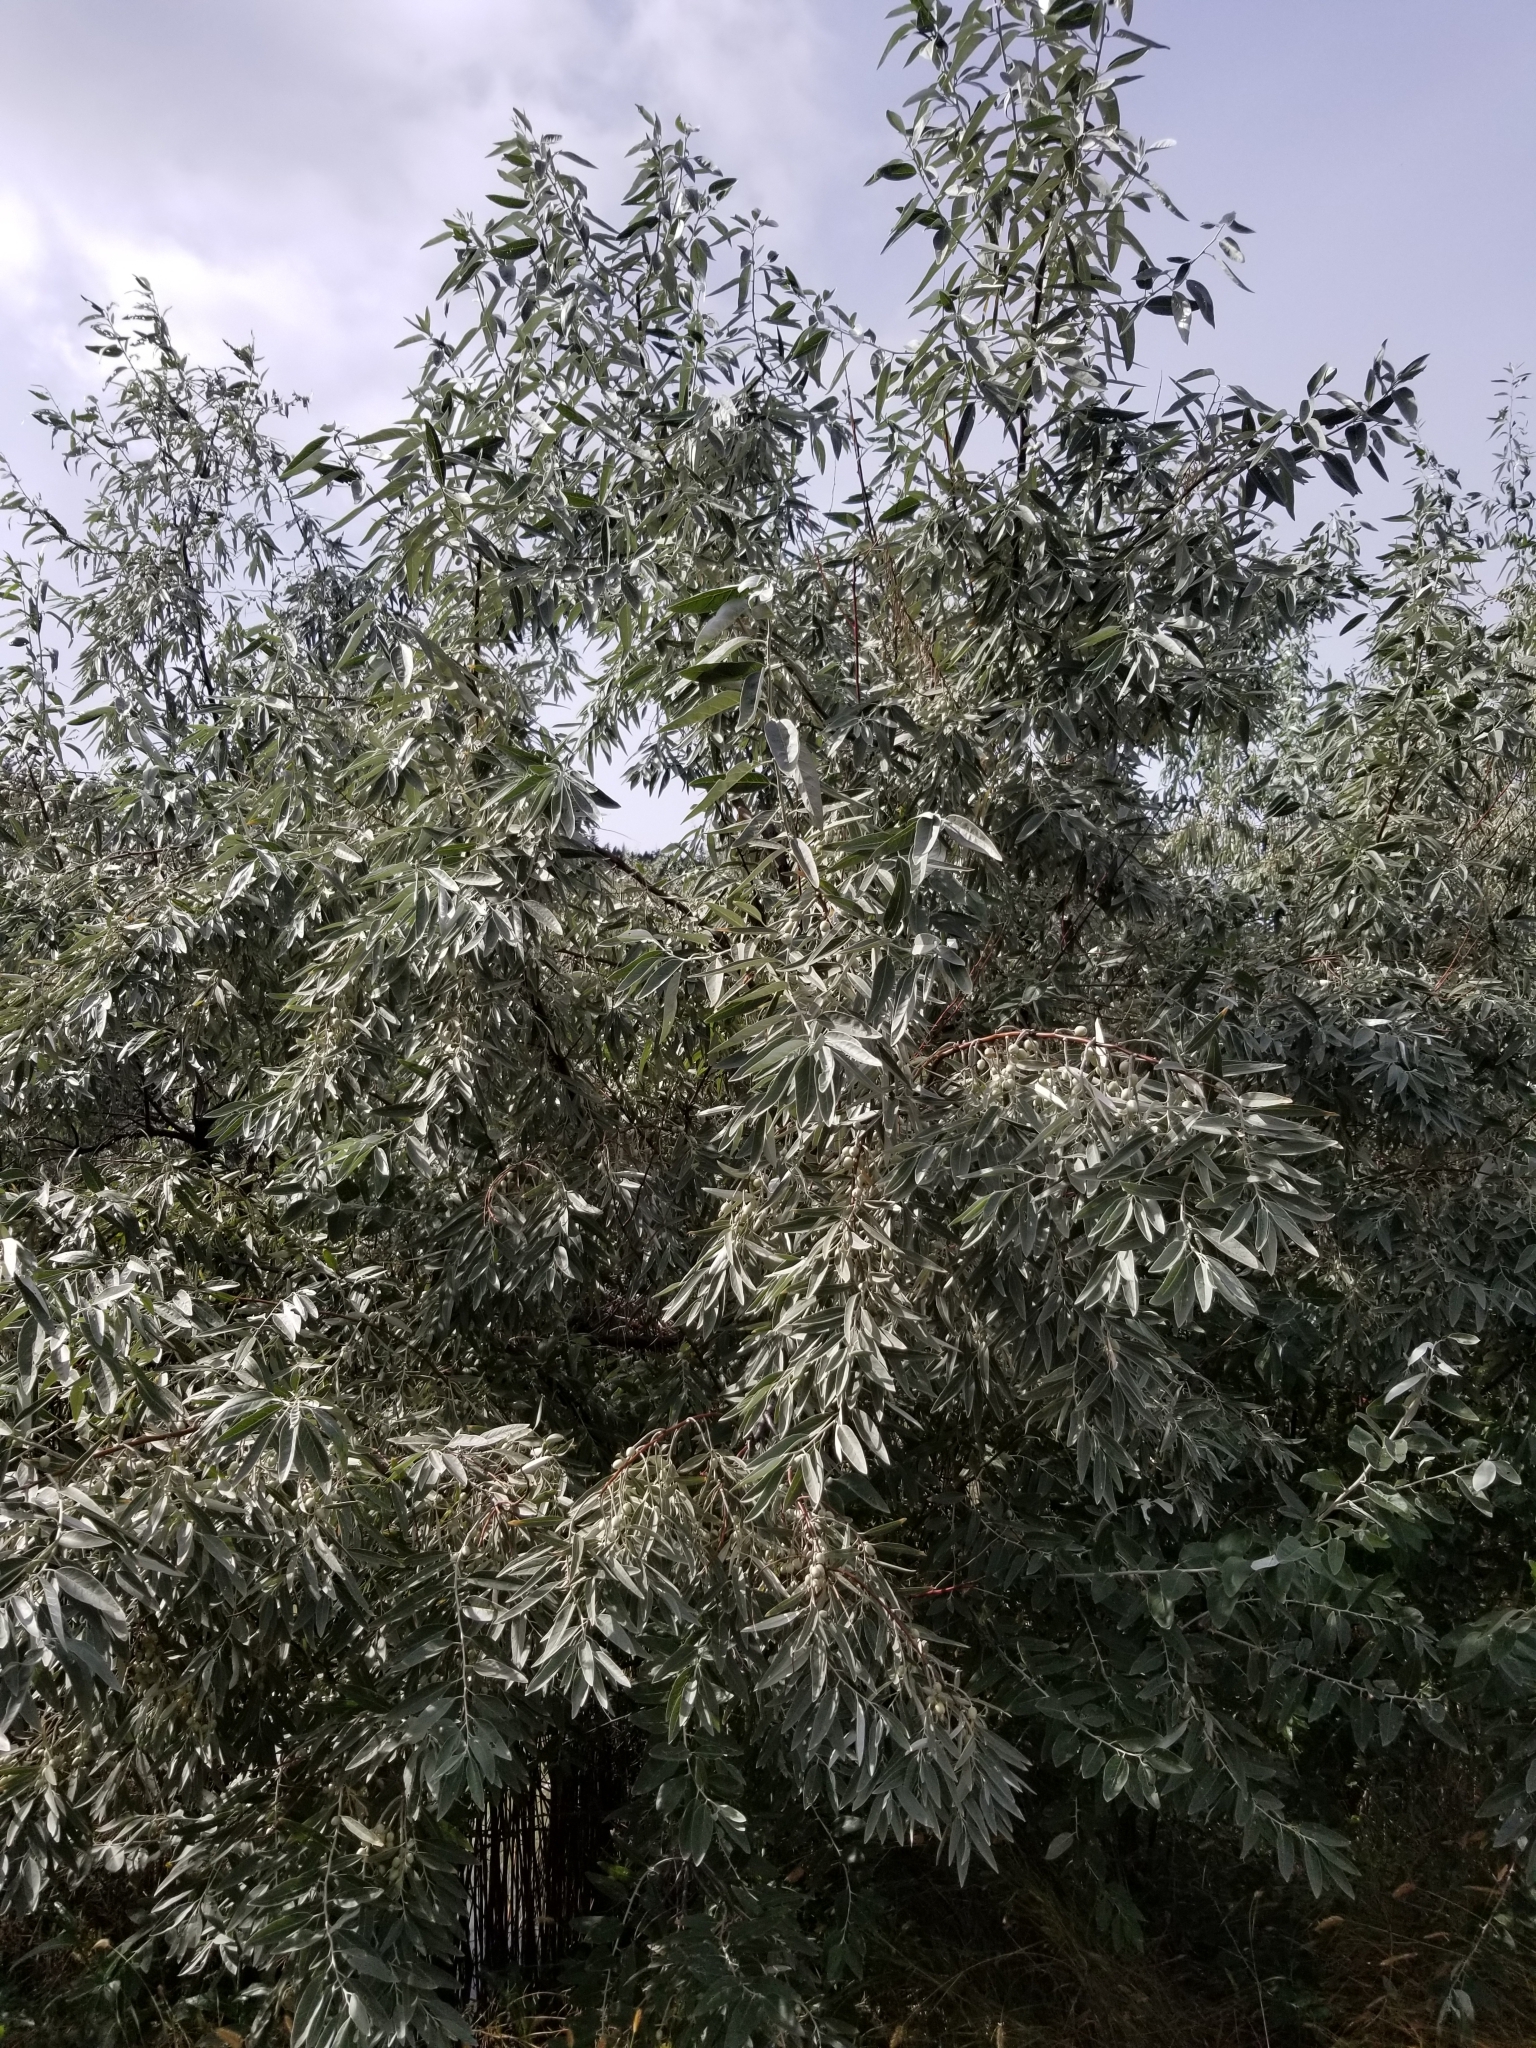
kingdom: Plantae
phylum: Tracheophyta
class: Magnoliopsida
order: Rosales
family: Elaeagnaceae
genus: Elaeagnus
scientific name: Elaeagnus angustifolia
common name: Russian olive
